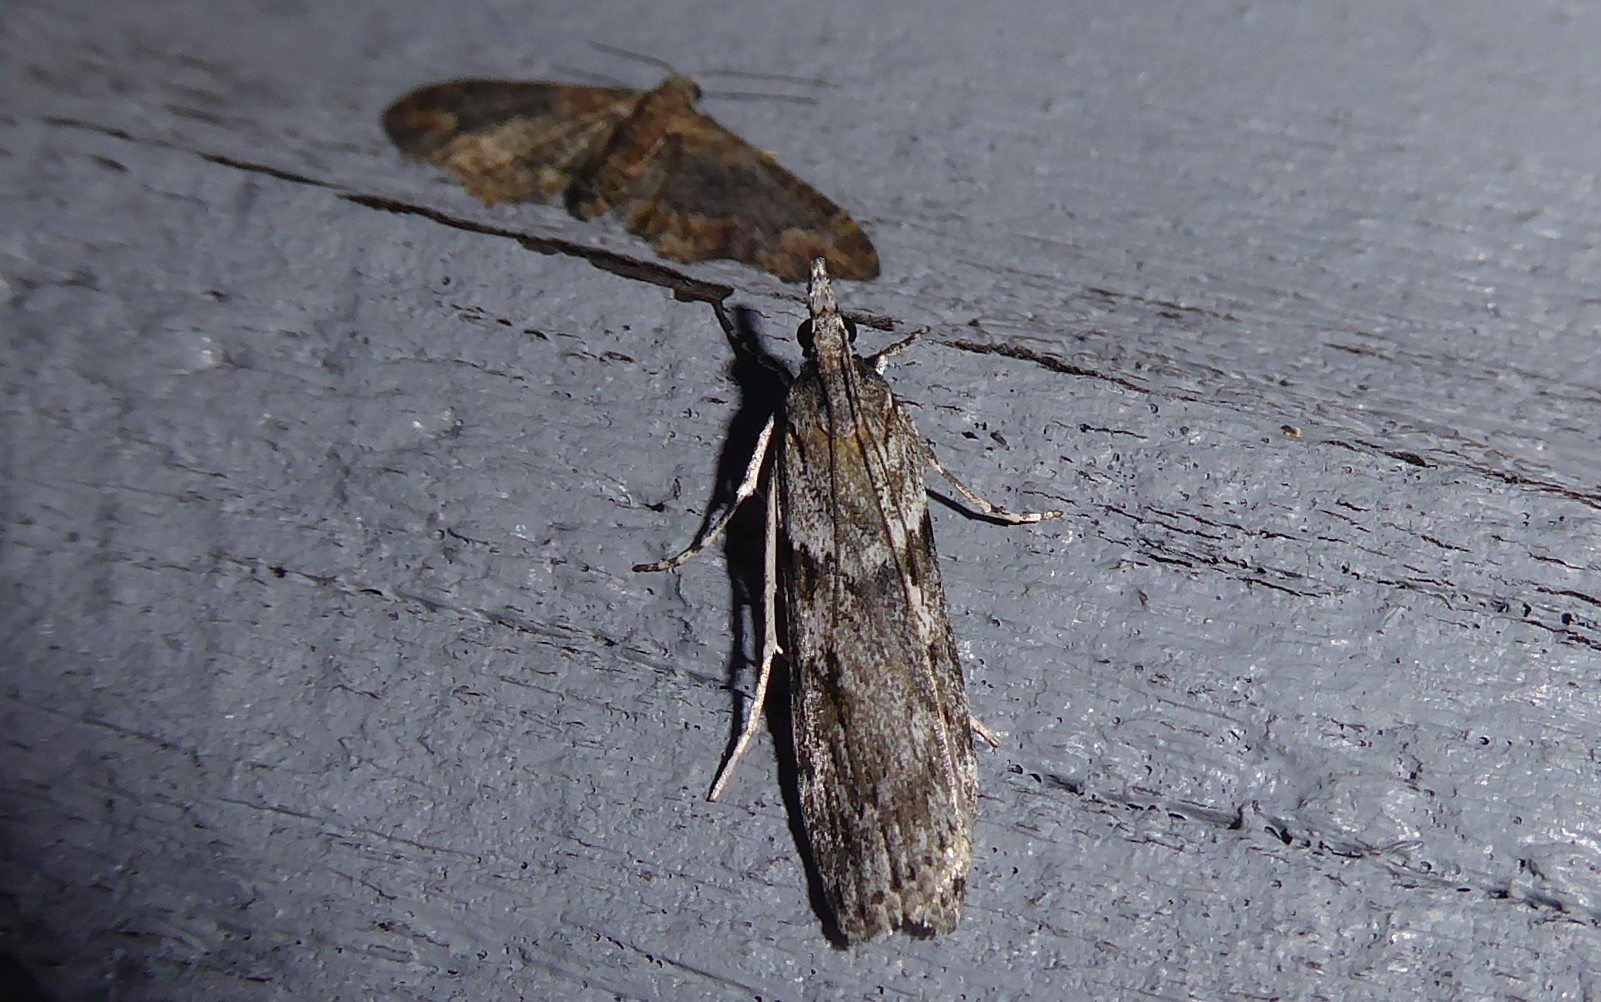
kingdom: Animalia
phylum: Arthropoda
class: Insecta
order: Lepidoptera
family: Crambidae
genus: Scoparia
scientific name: Scoparia halopis
